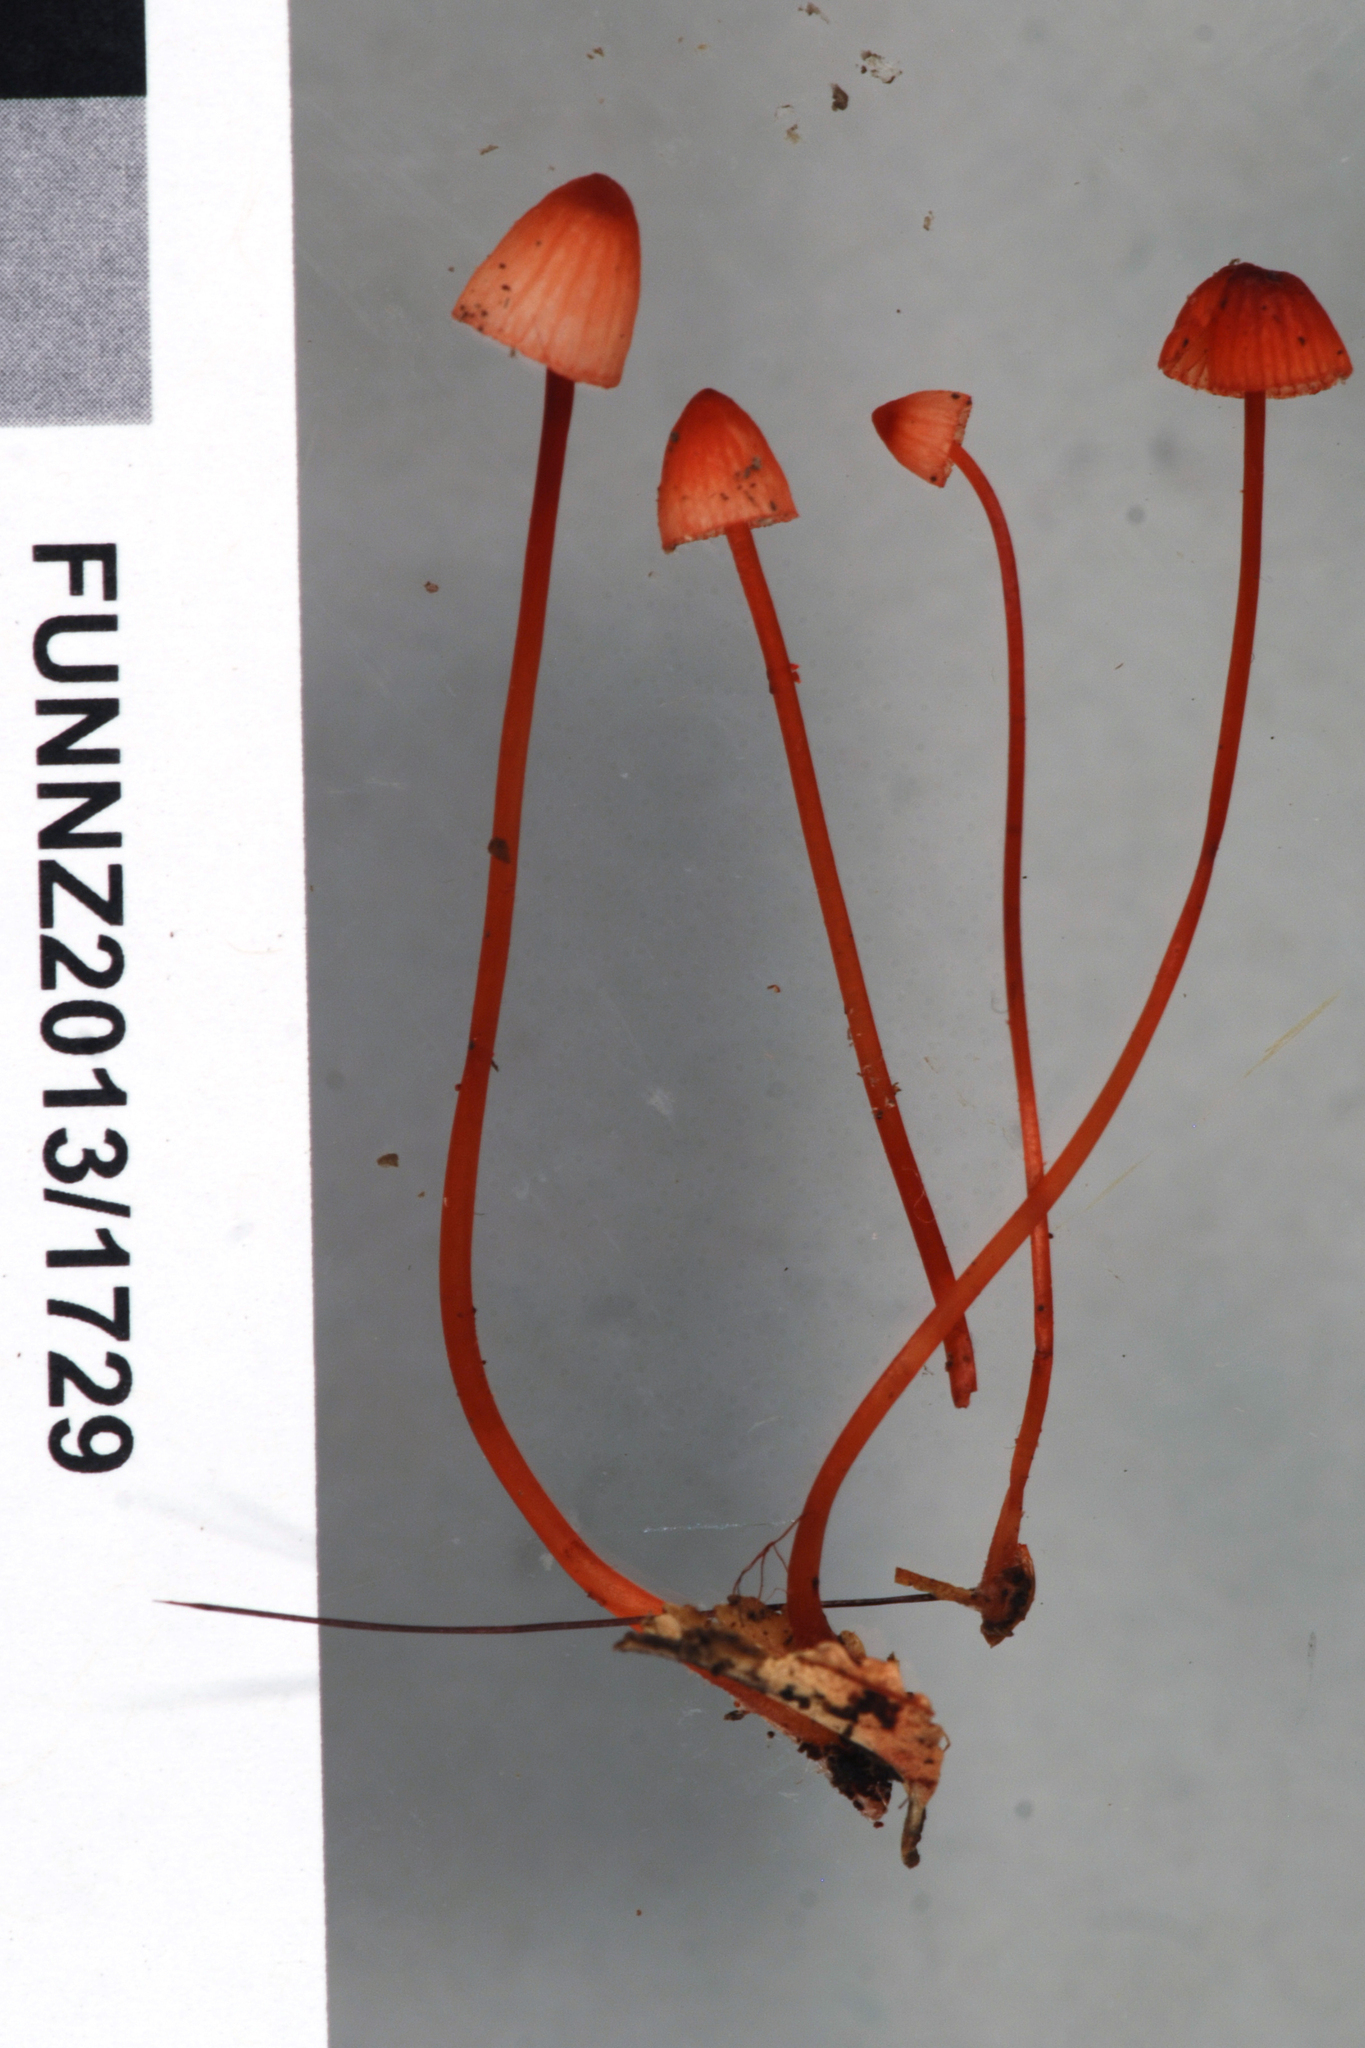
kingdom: Fungi
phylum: Basidiomycota
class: Agaricomycetes
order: Agaricales
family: Mycenaceae
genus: Mycena
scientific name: Mycena ura
